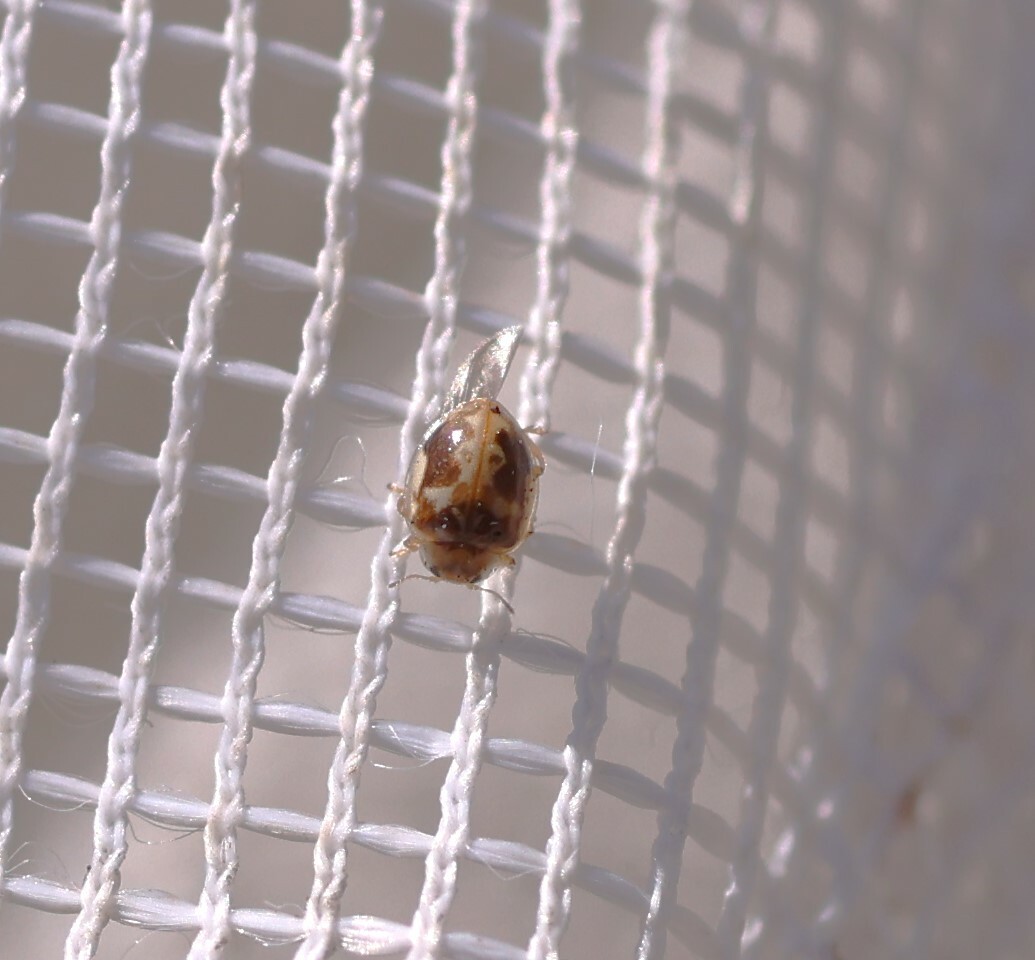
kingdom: Animalia
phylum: Arthropoda
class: Insecta
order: Coleoptera
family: Coccinellidae
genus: Psyllobora
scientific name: Psyllobora renifer
